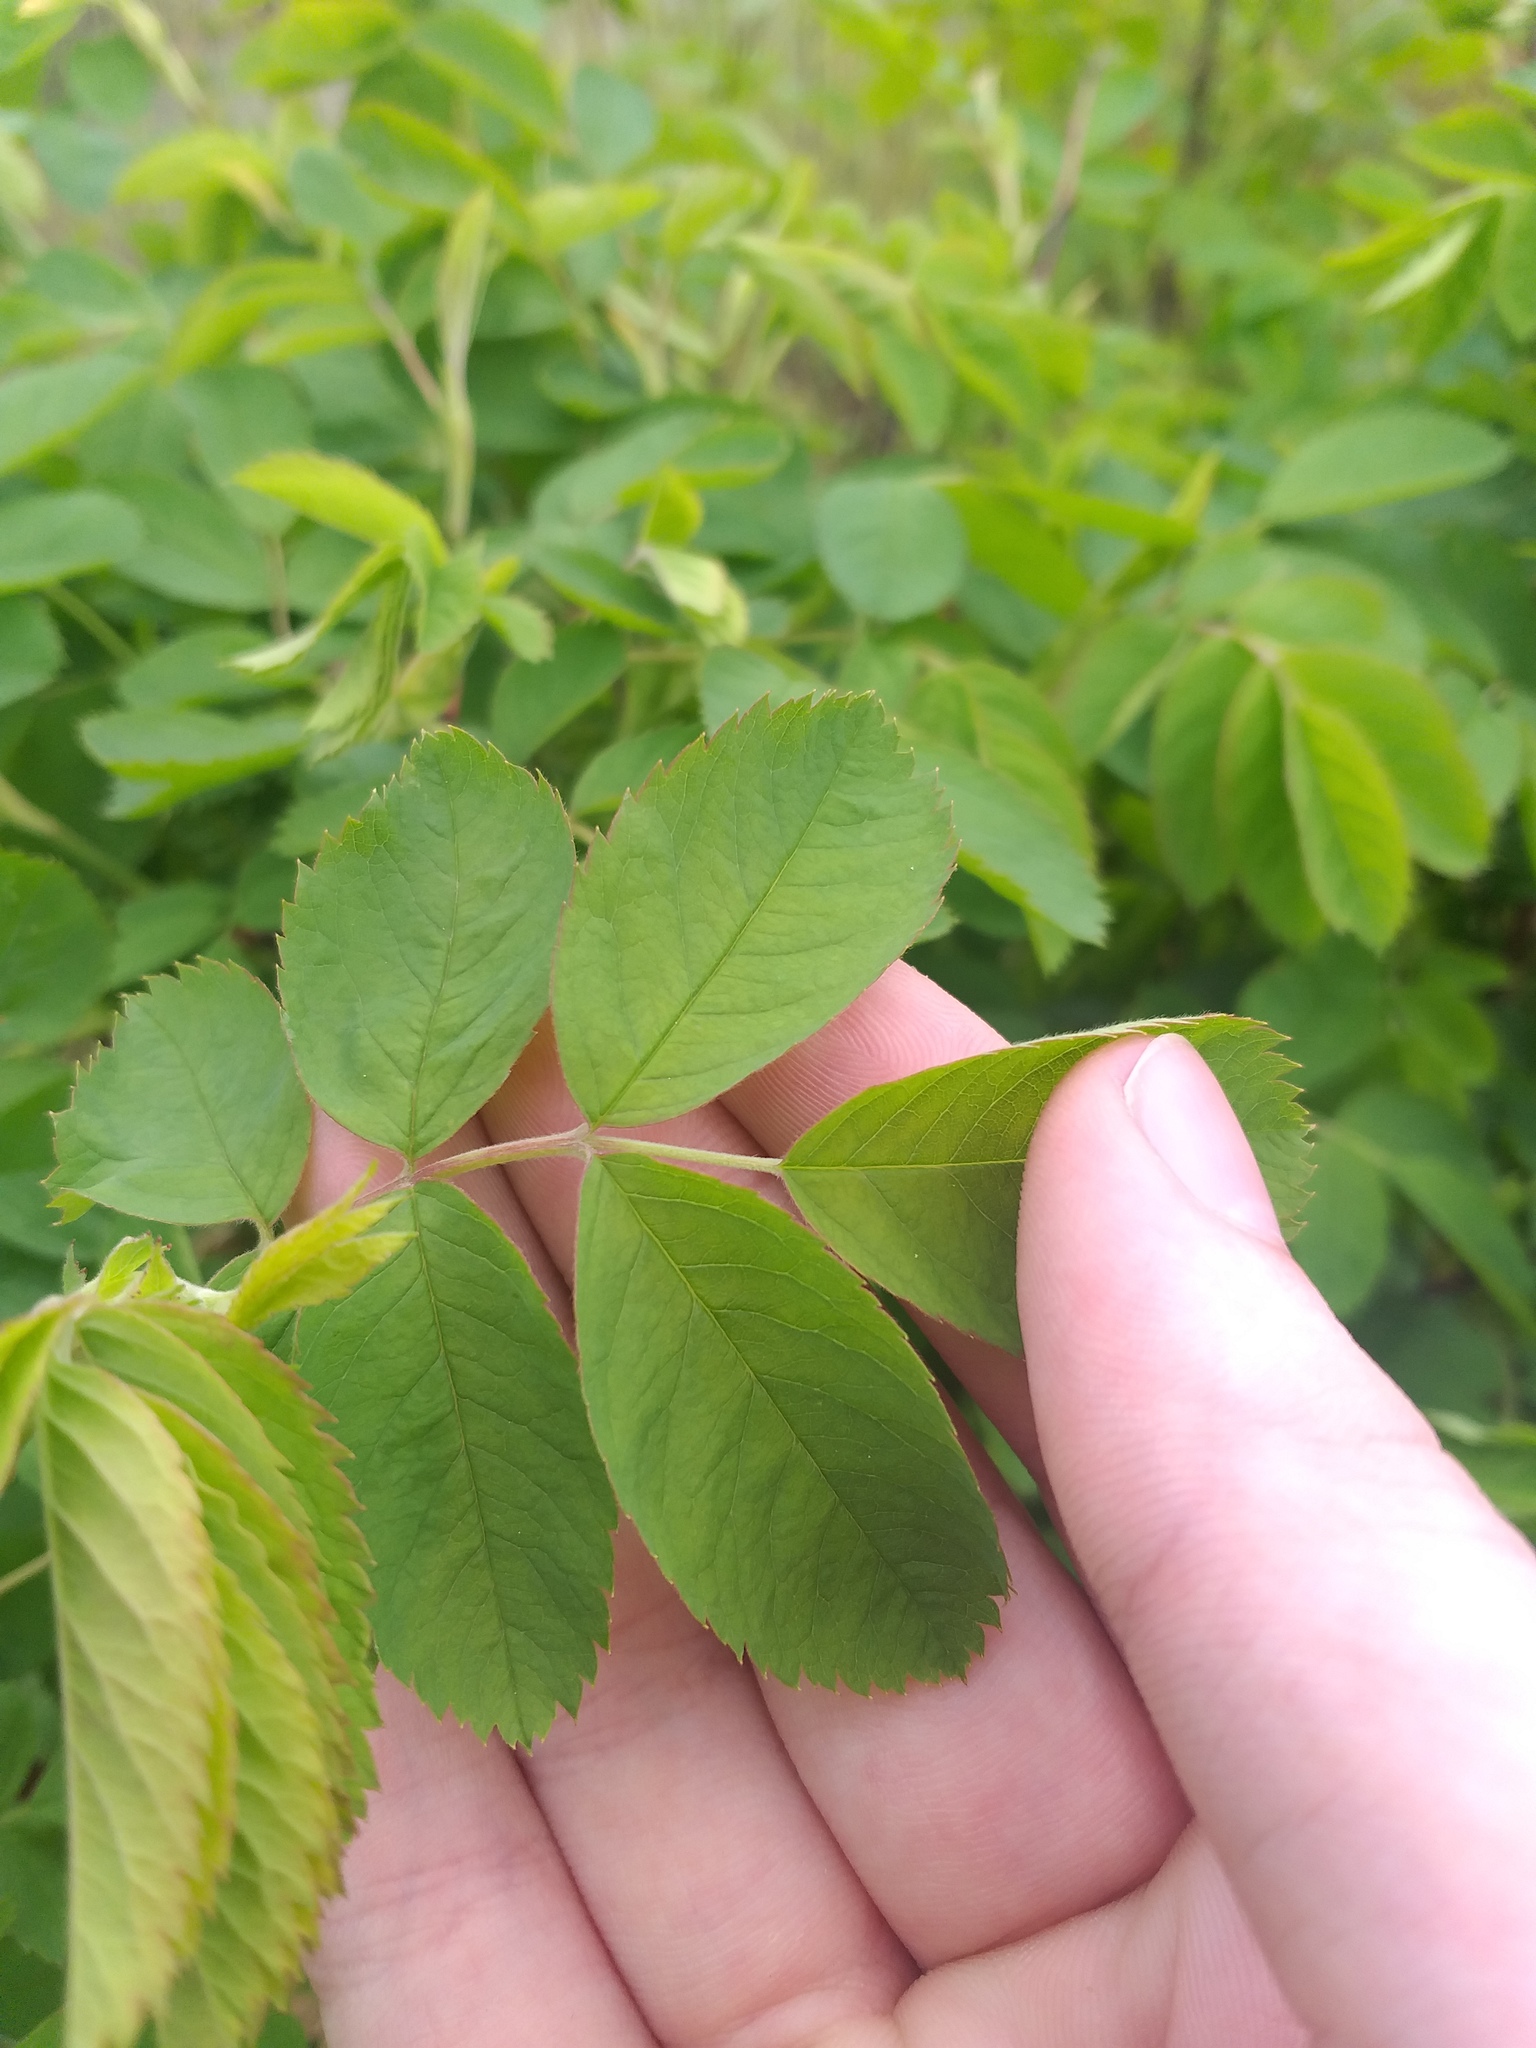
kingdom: Plantae
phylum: Tracheophyta
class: Magnoliopsida
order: Rosales
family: Rosaceae
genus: Rosa
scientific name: Rosa majalis
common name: Cinnamon rose
